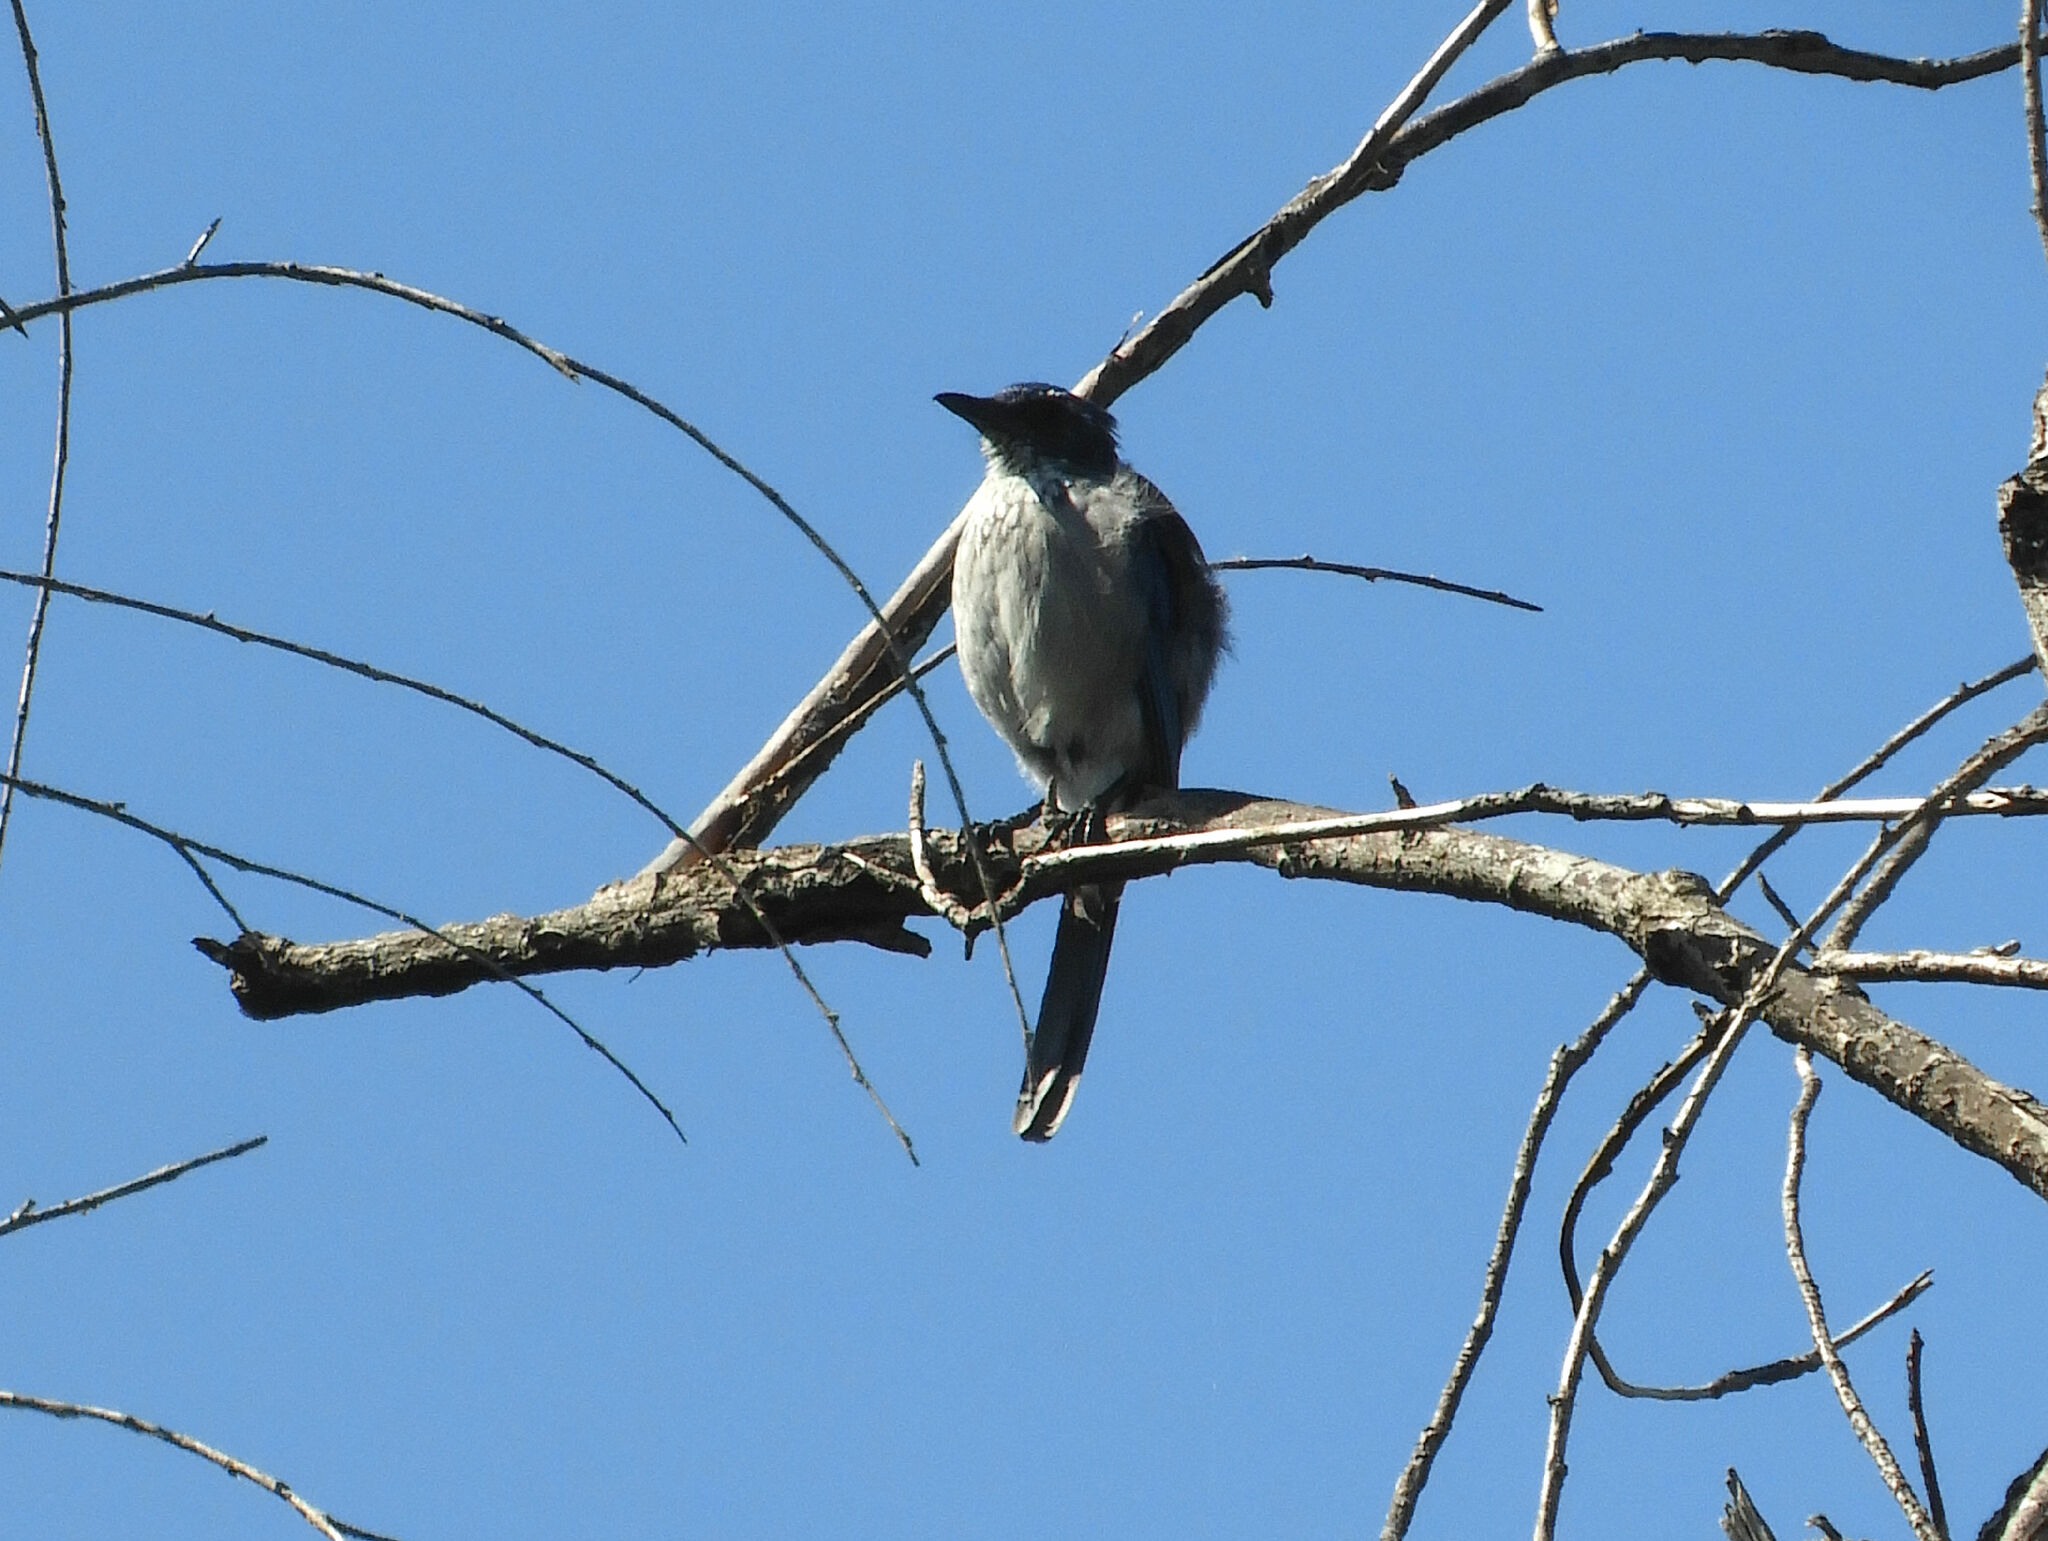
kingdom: Animalia
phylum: Chordata
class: Aves
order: Passeriformes
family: Corvidae
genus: Aphelocoma
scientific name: Aphelocoma californica
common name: California scrub-jay
